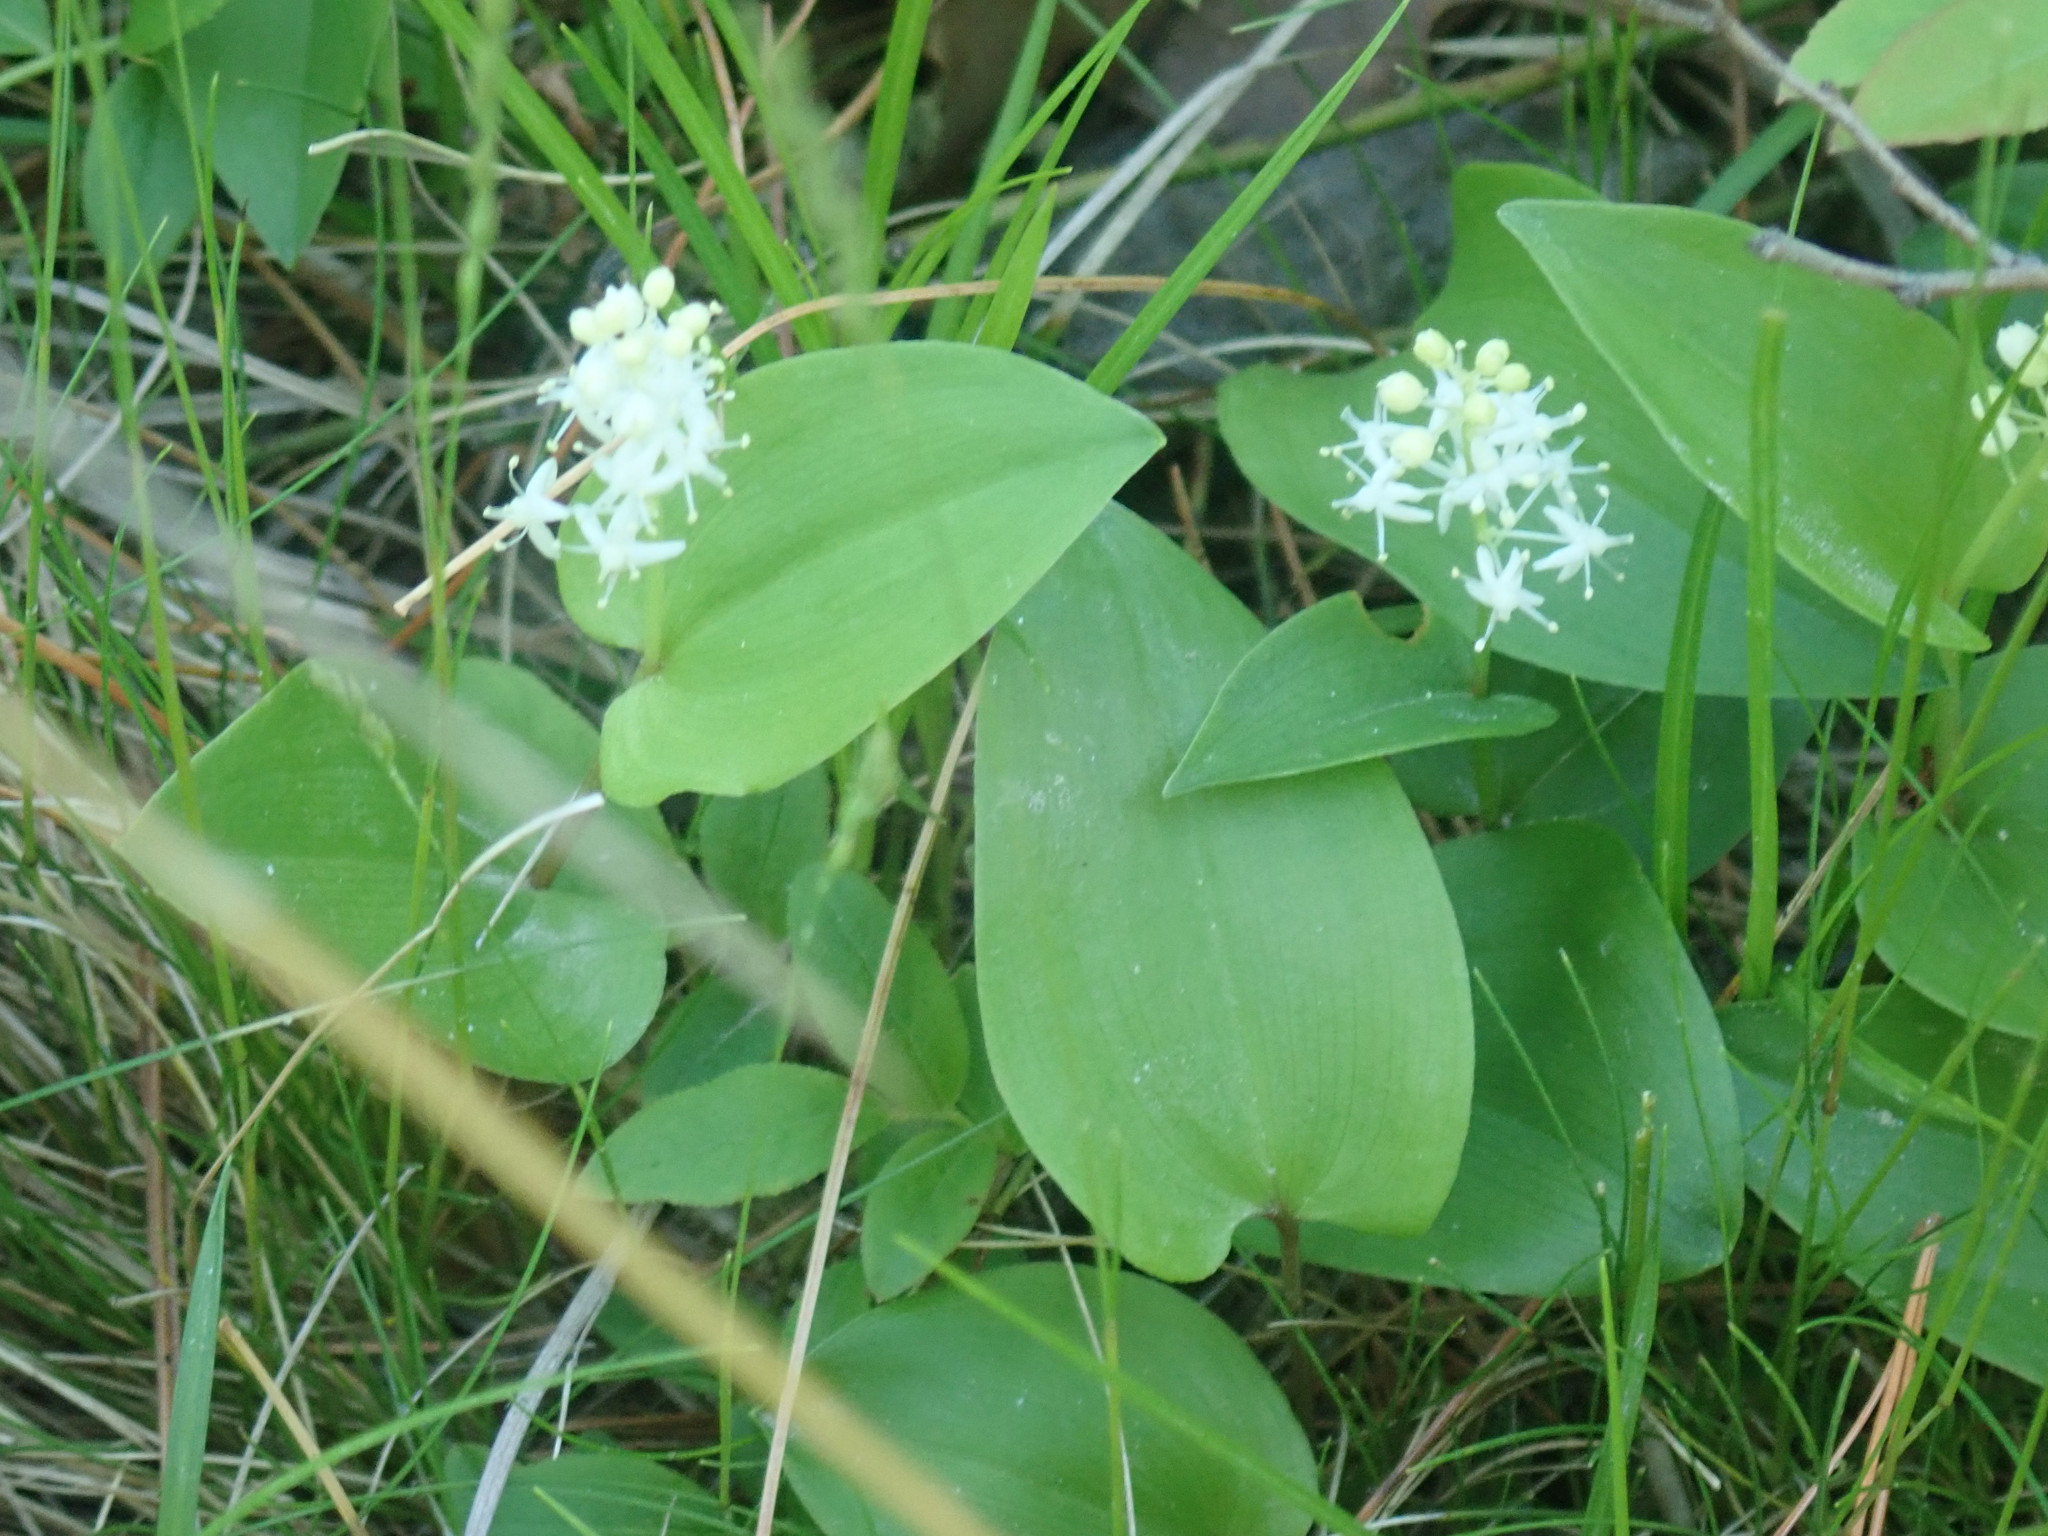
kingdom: Plantae
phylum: Tracheophyta
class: Liliopsida
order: Asparagales
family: Asparagaceae
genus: Maianthemum
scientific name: Maianthemum canadense
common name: False lily-of-the-valley
